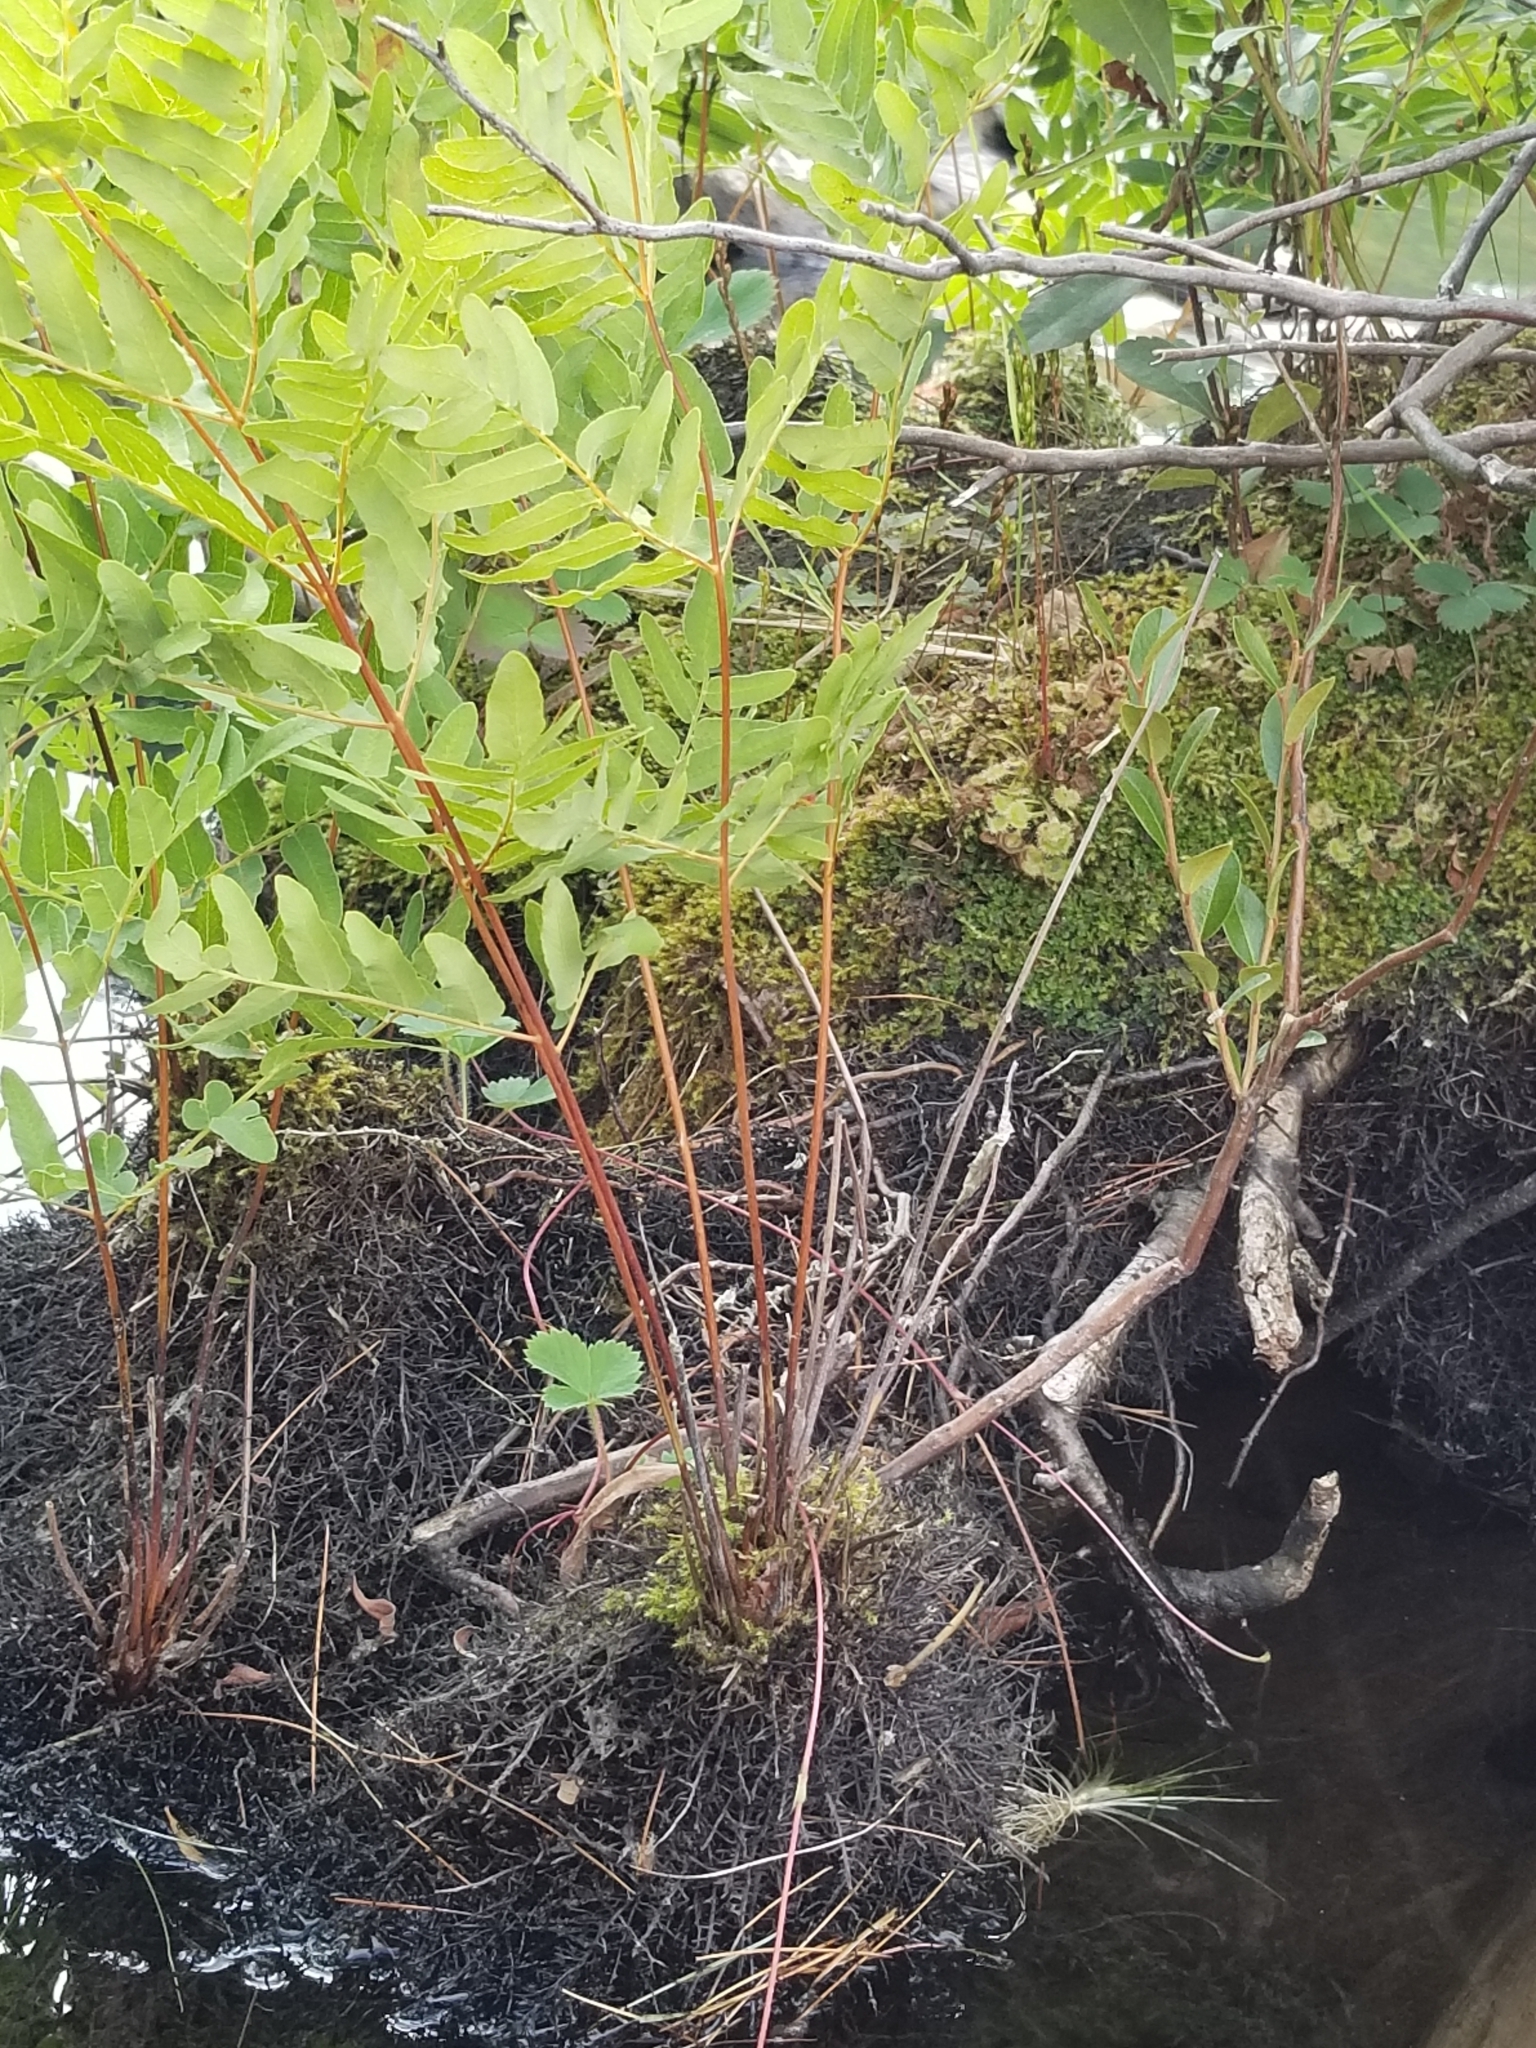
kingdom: Plantae
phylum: Tracheophyta
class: Polypodiopsida
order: Osmundales
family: Osmundaceae
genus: Osmunda
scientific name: Osmunda spectabilis
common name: American royal fern
